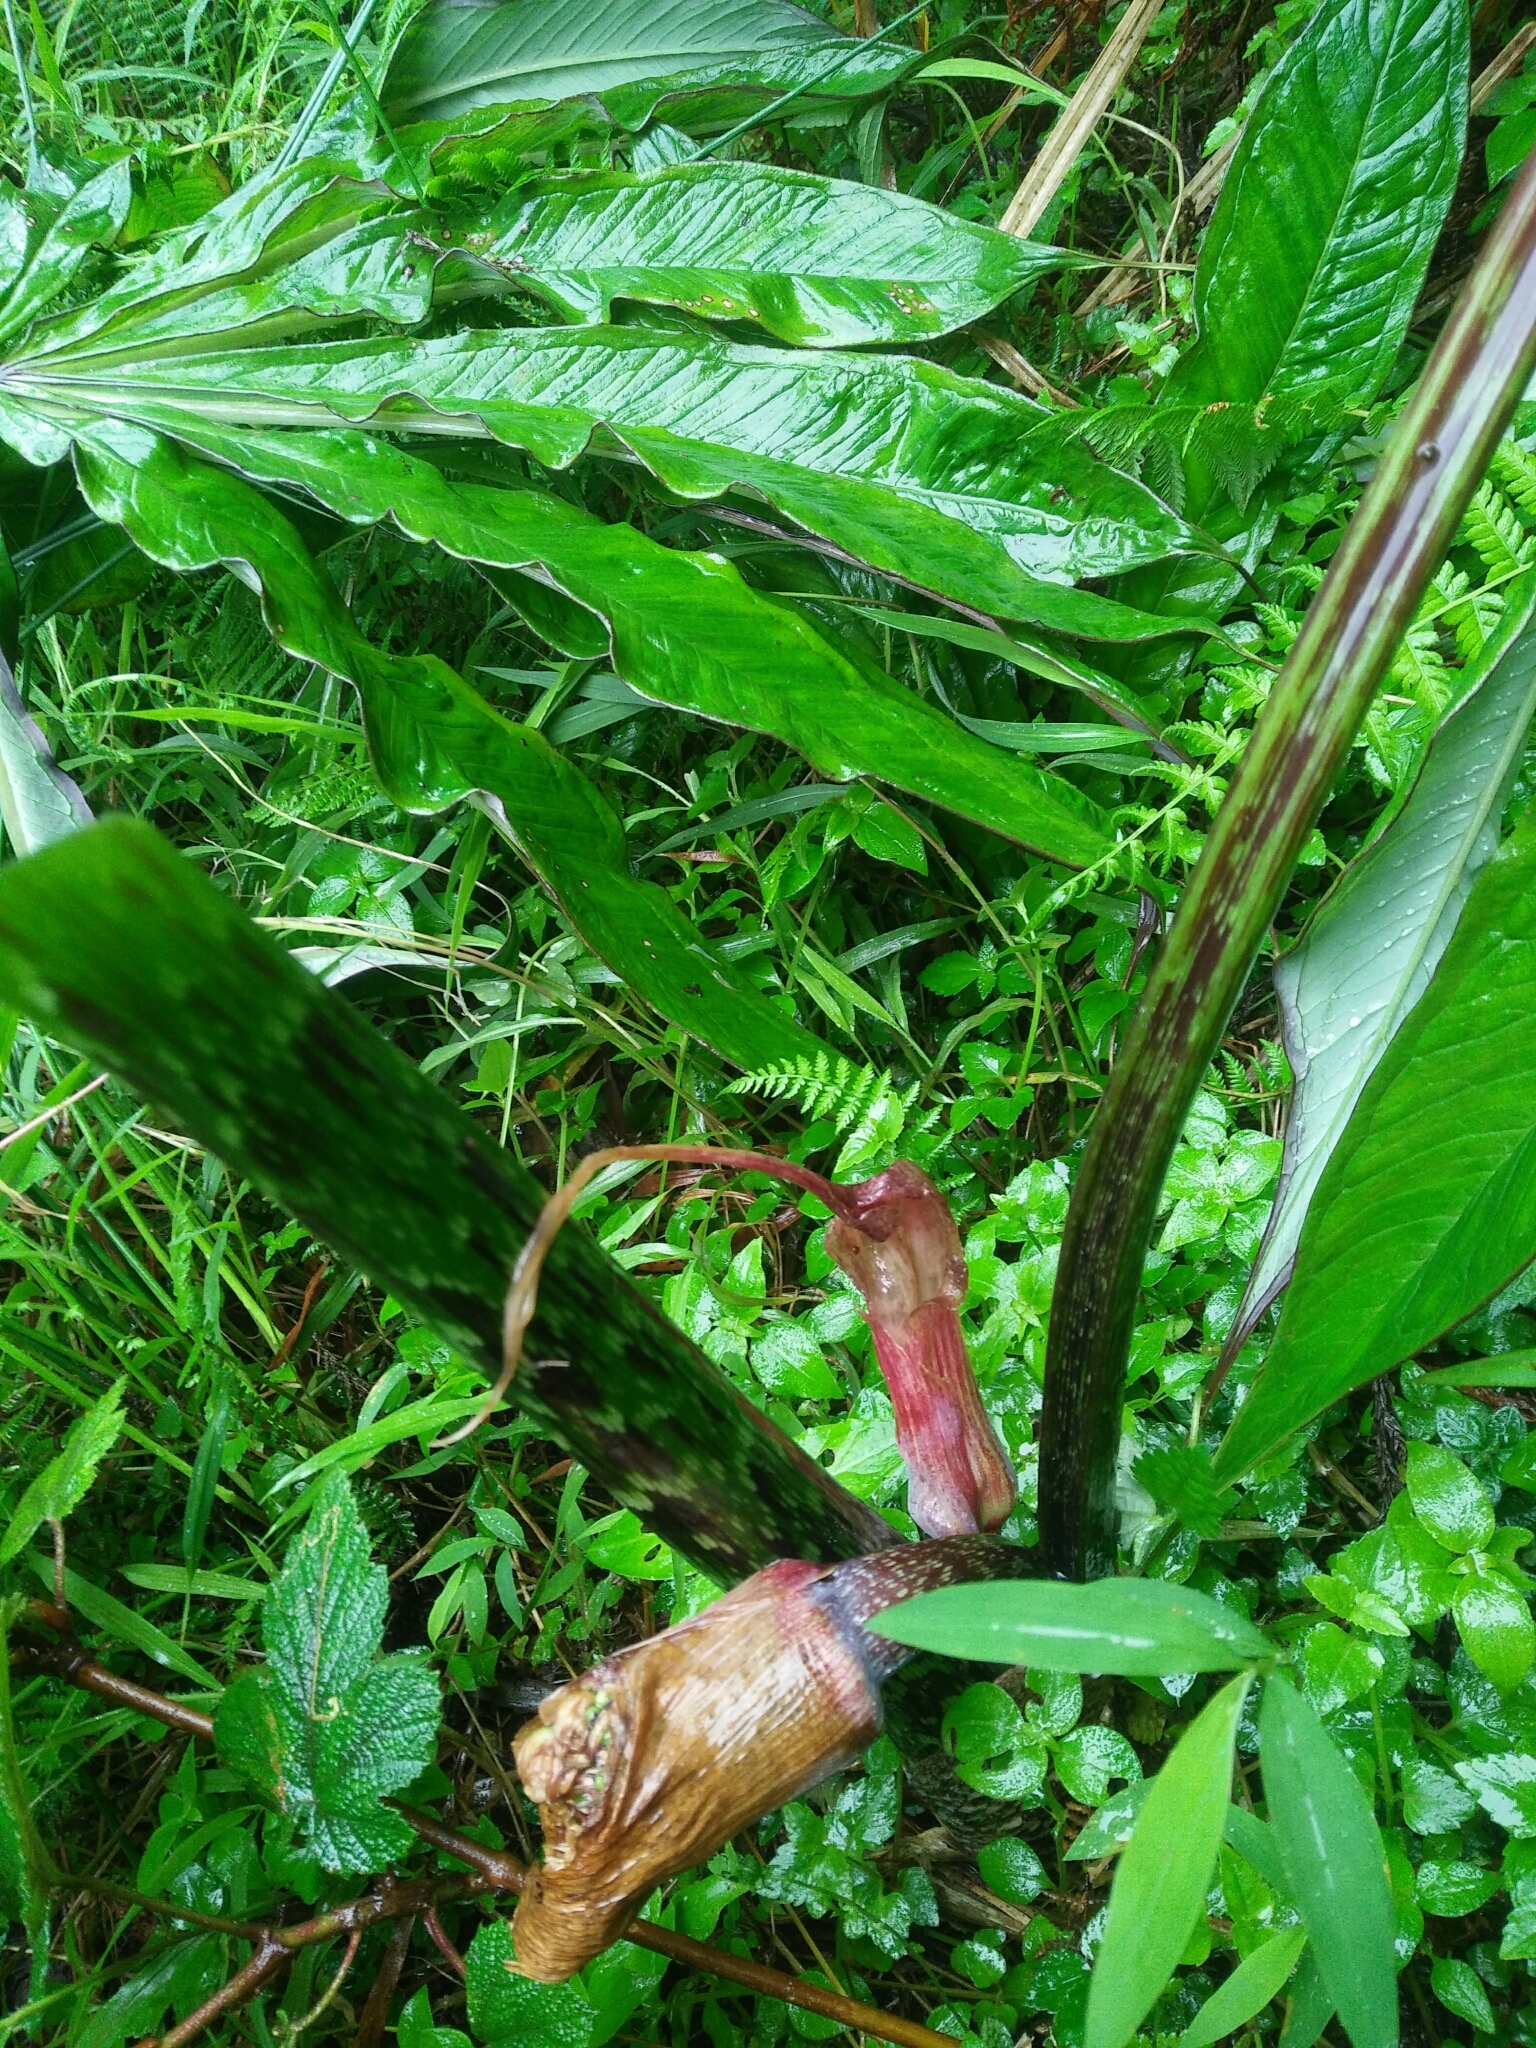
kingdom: Plantae
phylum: Tracheophyta
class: Liliopsida
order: Alismatales
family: Araceae
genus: Arisaema
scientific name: Arisaema taiwanense
